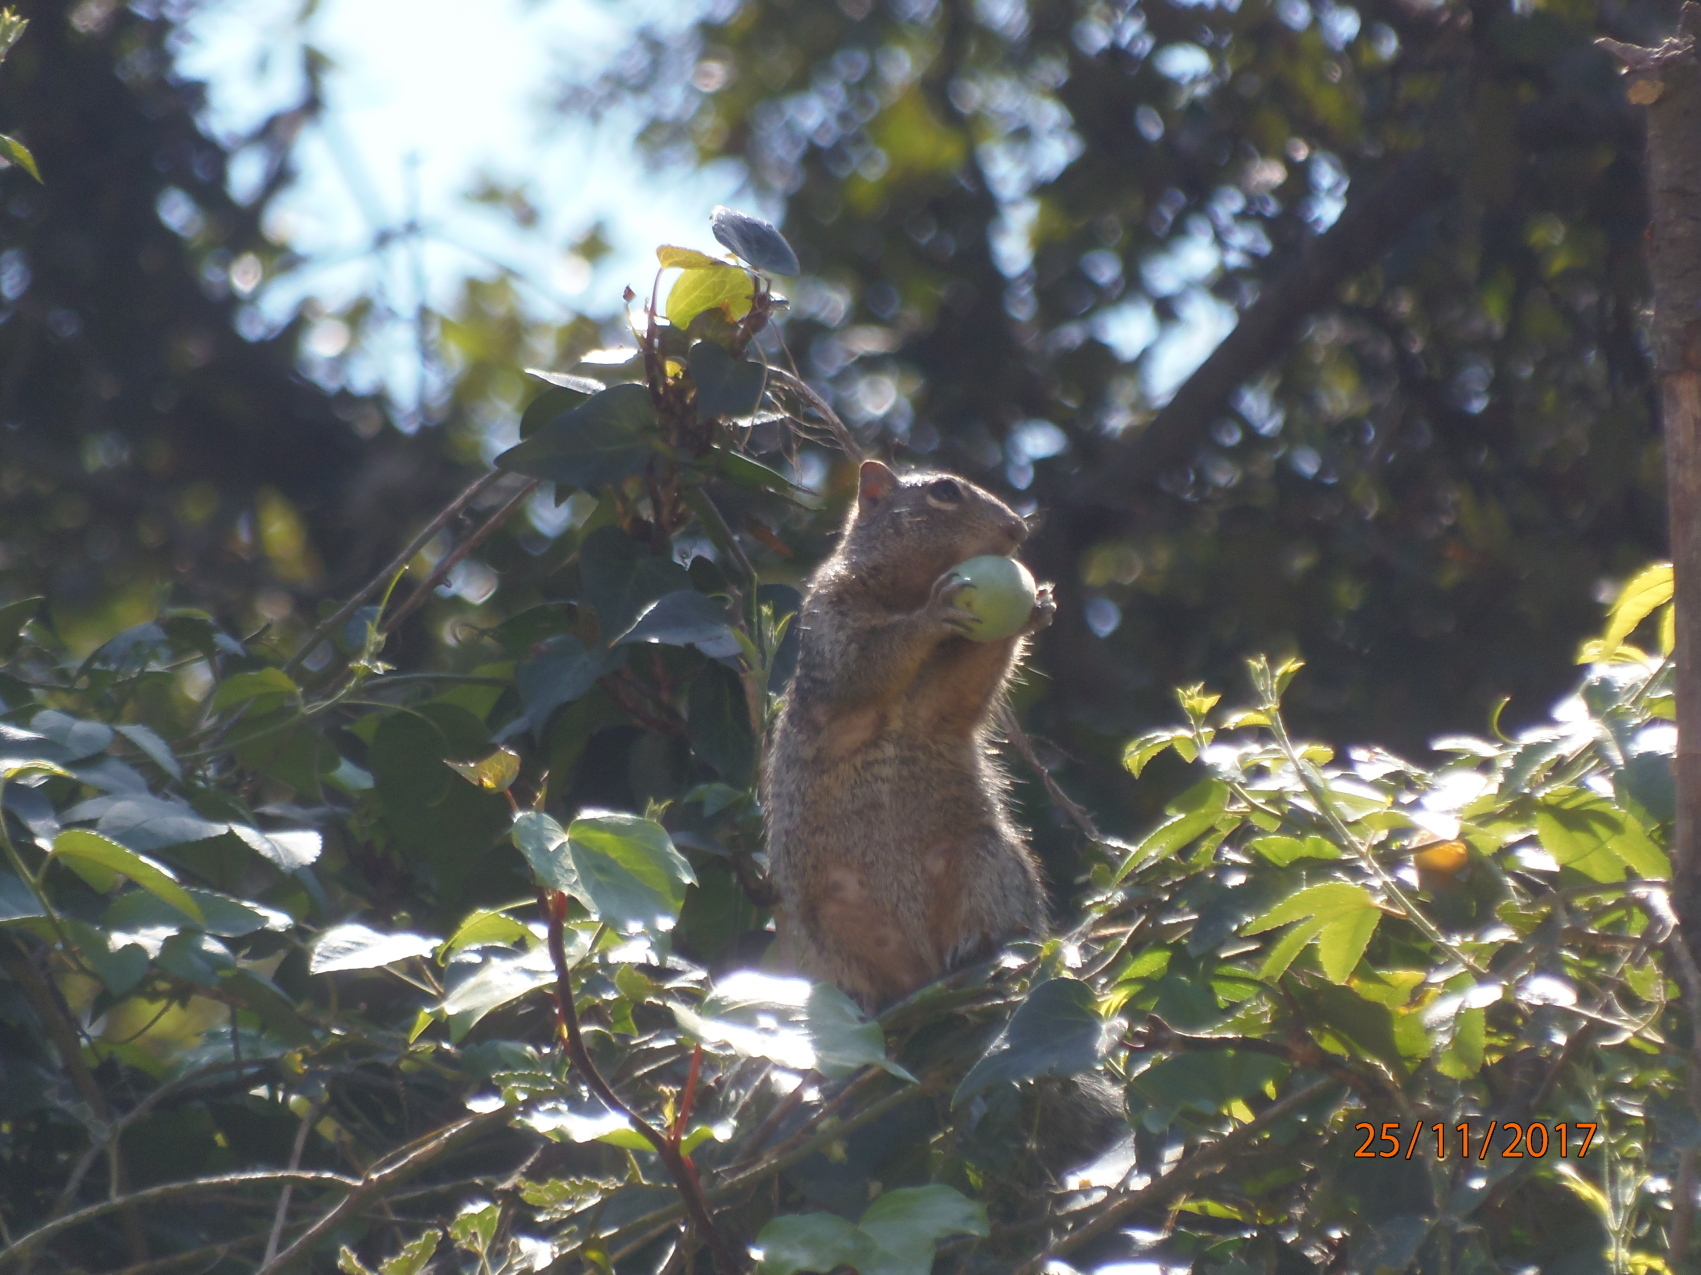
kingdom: Animalia
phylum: Chordata
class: Mammalia
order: Rodentia
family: Sciuridae
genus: Sciurus
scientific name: Sciurus aureogaster
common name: Red-bellied squirrel
